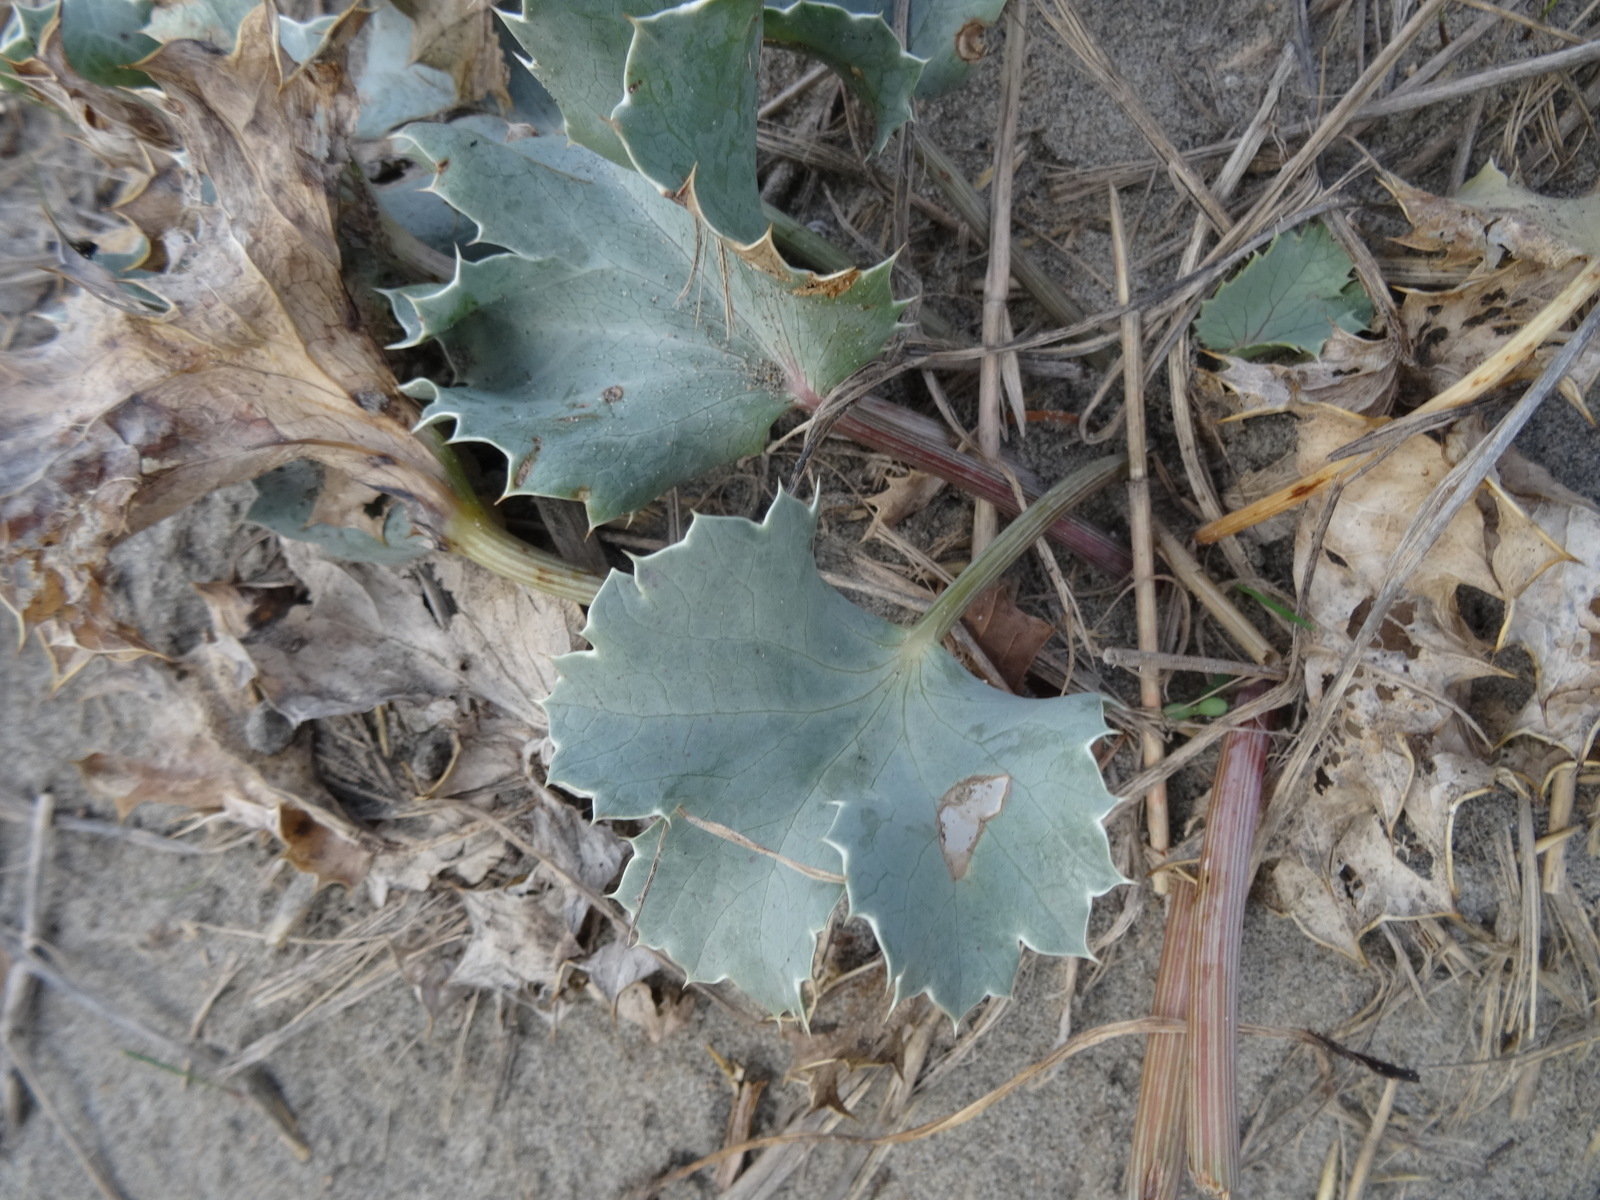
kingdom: Plantae
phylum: Tracheophyta
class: Magnoliopsida
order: Apiales
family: Apiaceae
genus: Eryngium
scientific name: Eryngium maritimum
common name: Sea-holly
